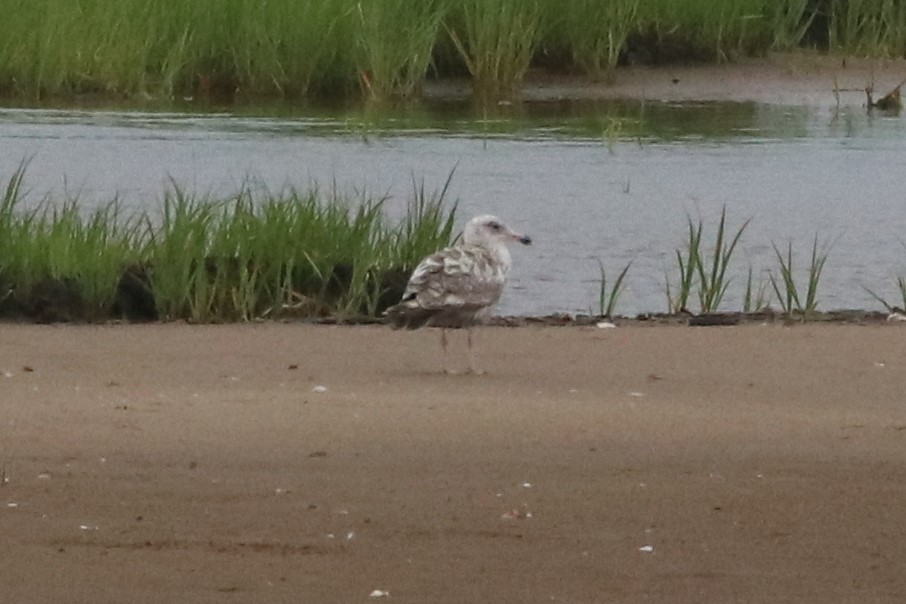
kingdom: Animalia
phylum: Chordata
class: Aves
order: Charadriiformes
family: Laridae
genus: Larus
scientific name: Larus argentatus
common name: Herring gull
